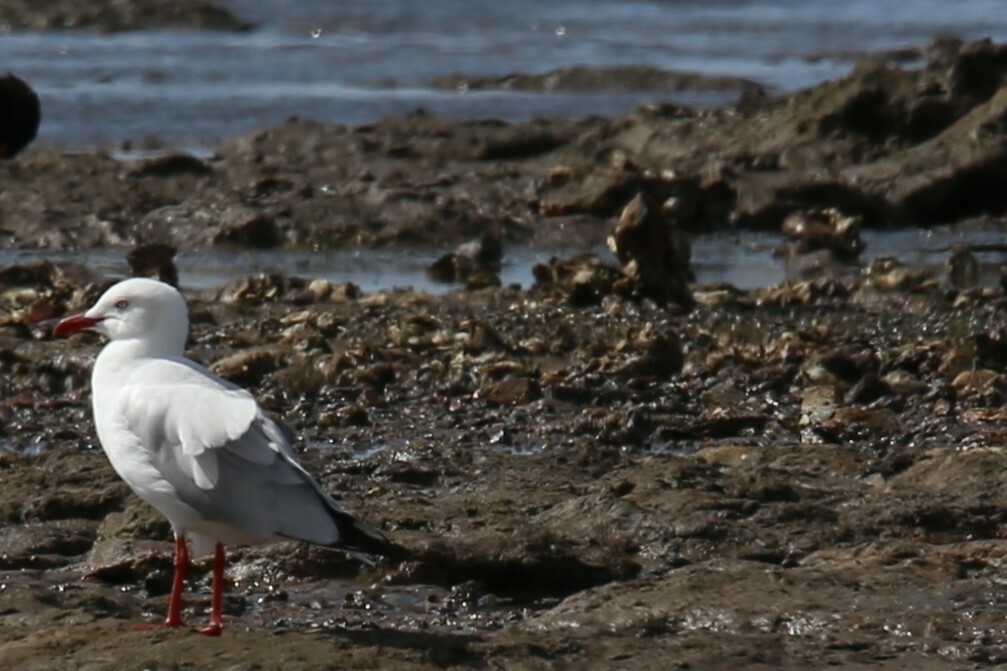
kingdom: Animalia
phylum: Chordata
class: Aves
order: Charadriiformes
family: Laridae
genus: Chroicocephalus
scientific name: Chroicocephalus novaehollandiae
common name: Silver gull
